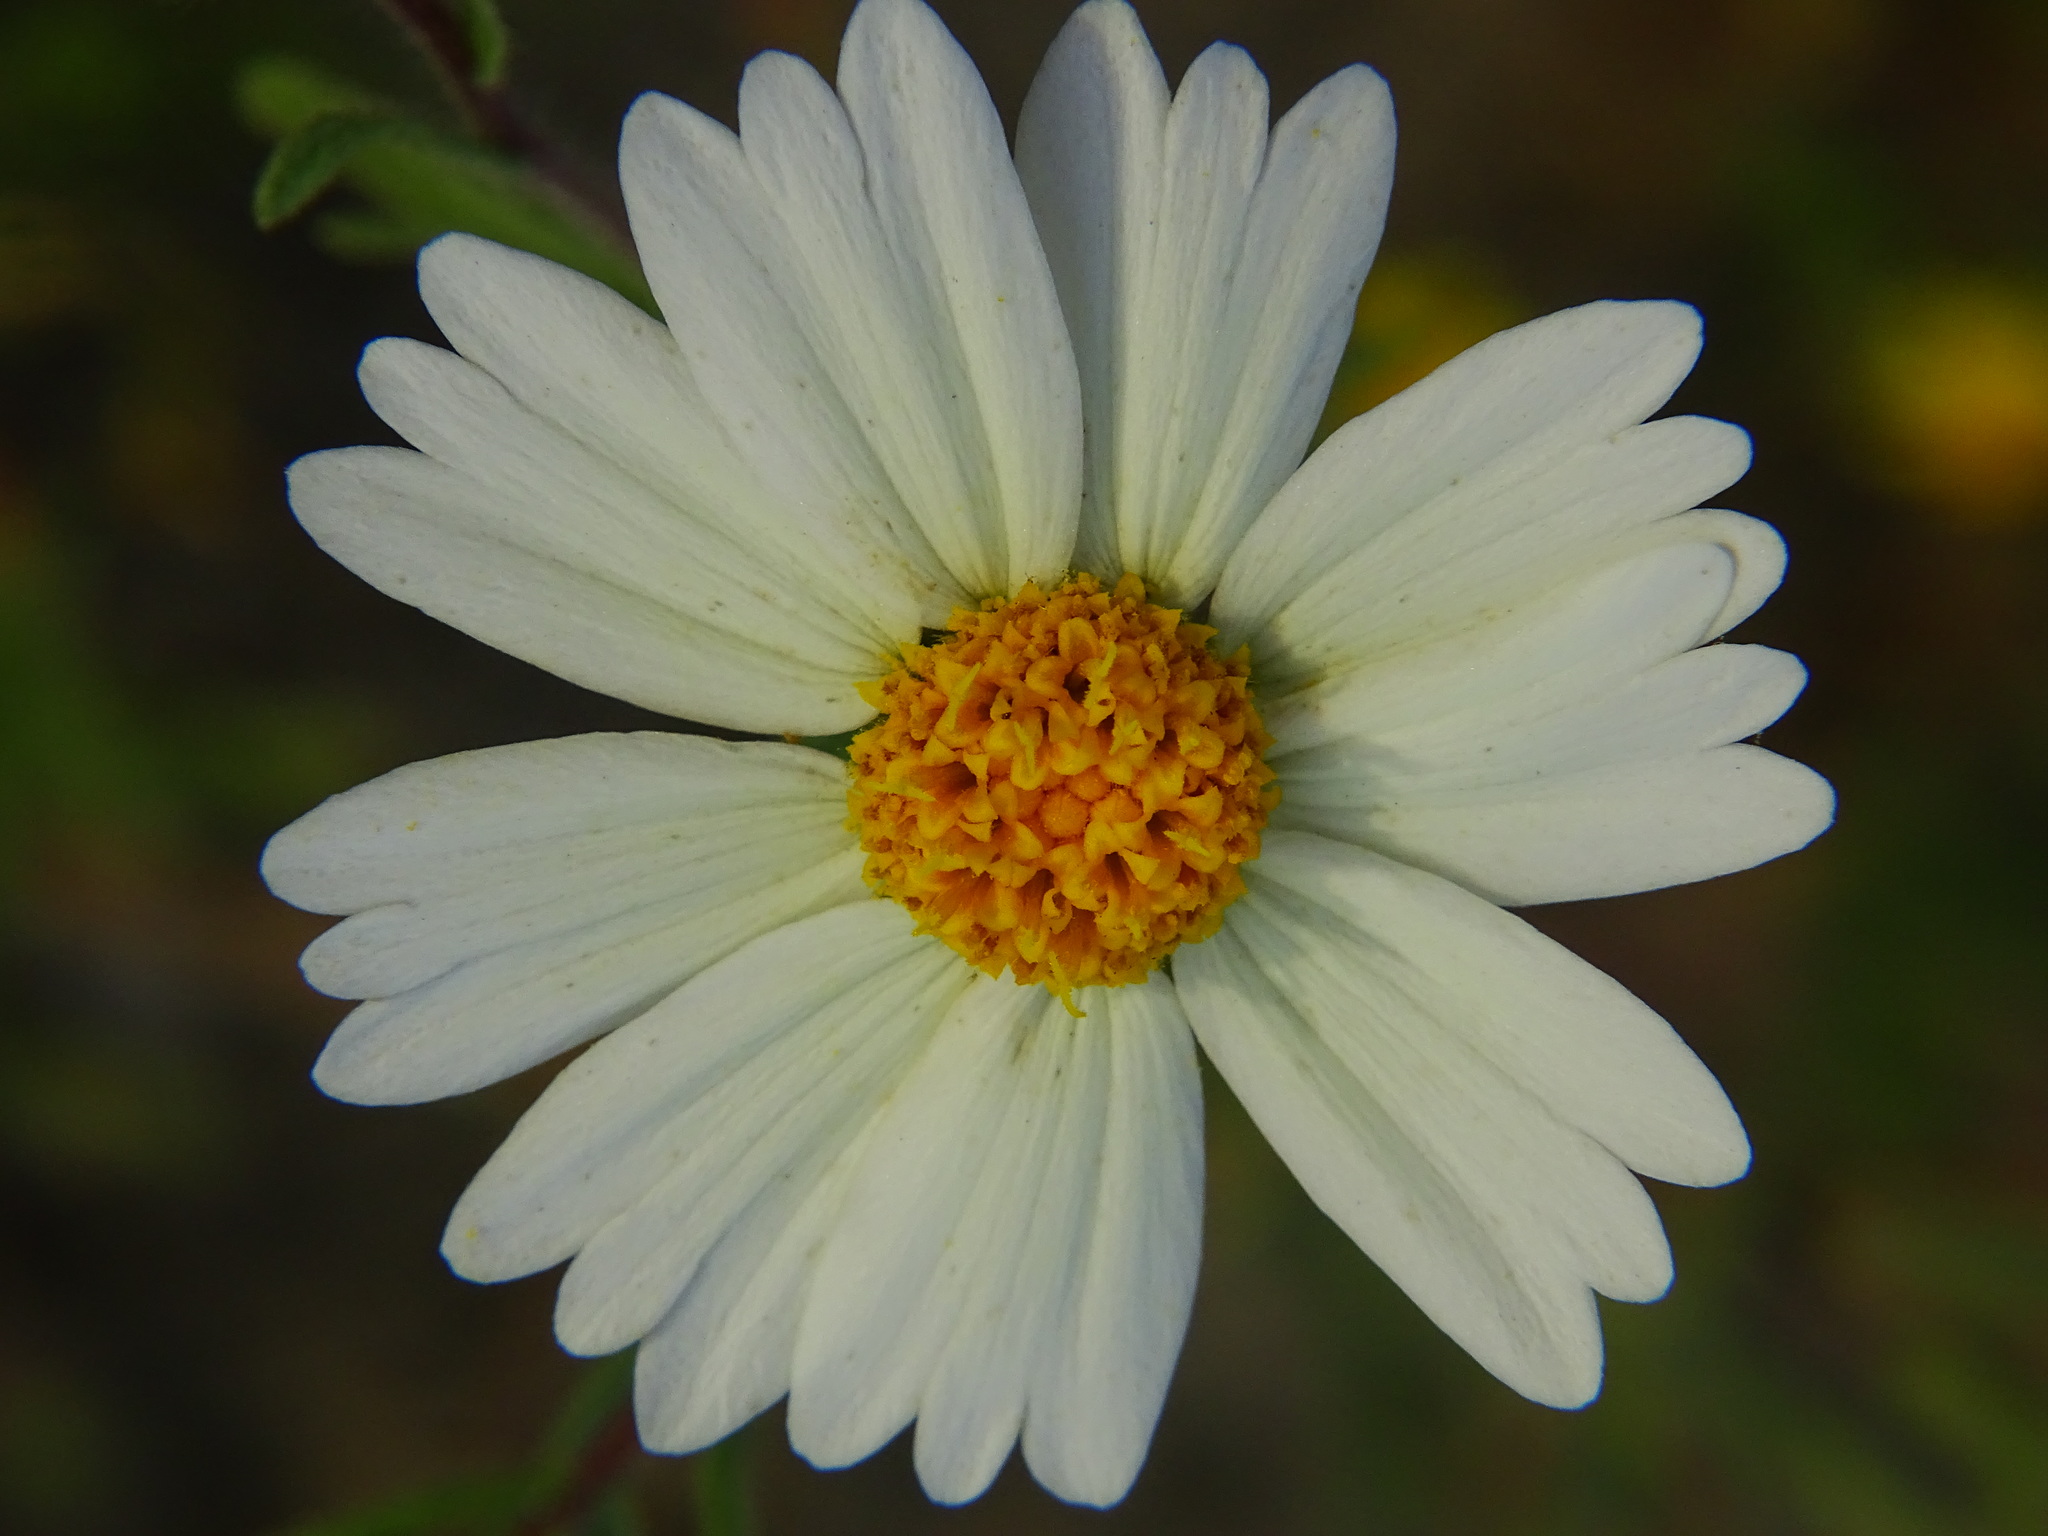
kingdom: Plantae
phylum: Tracheophyta
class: Magnoliopsida
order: Asterales
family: Asteraceae
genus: Layia
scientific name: Layia pentachaeta
